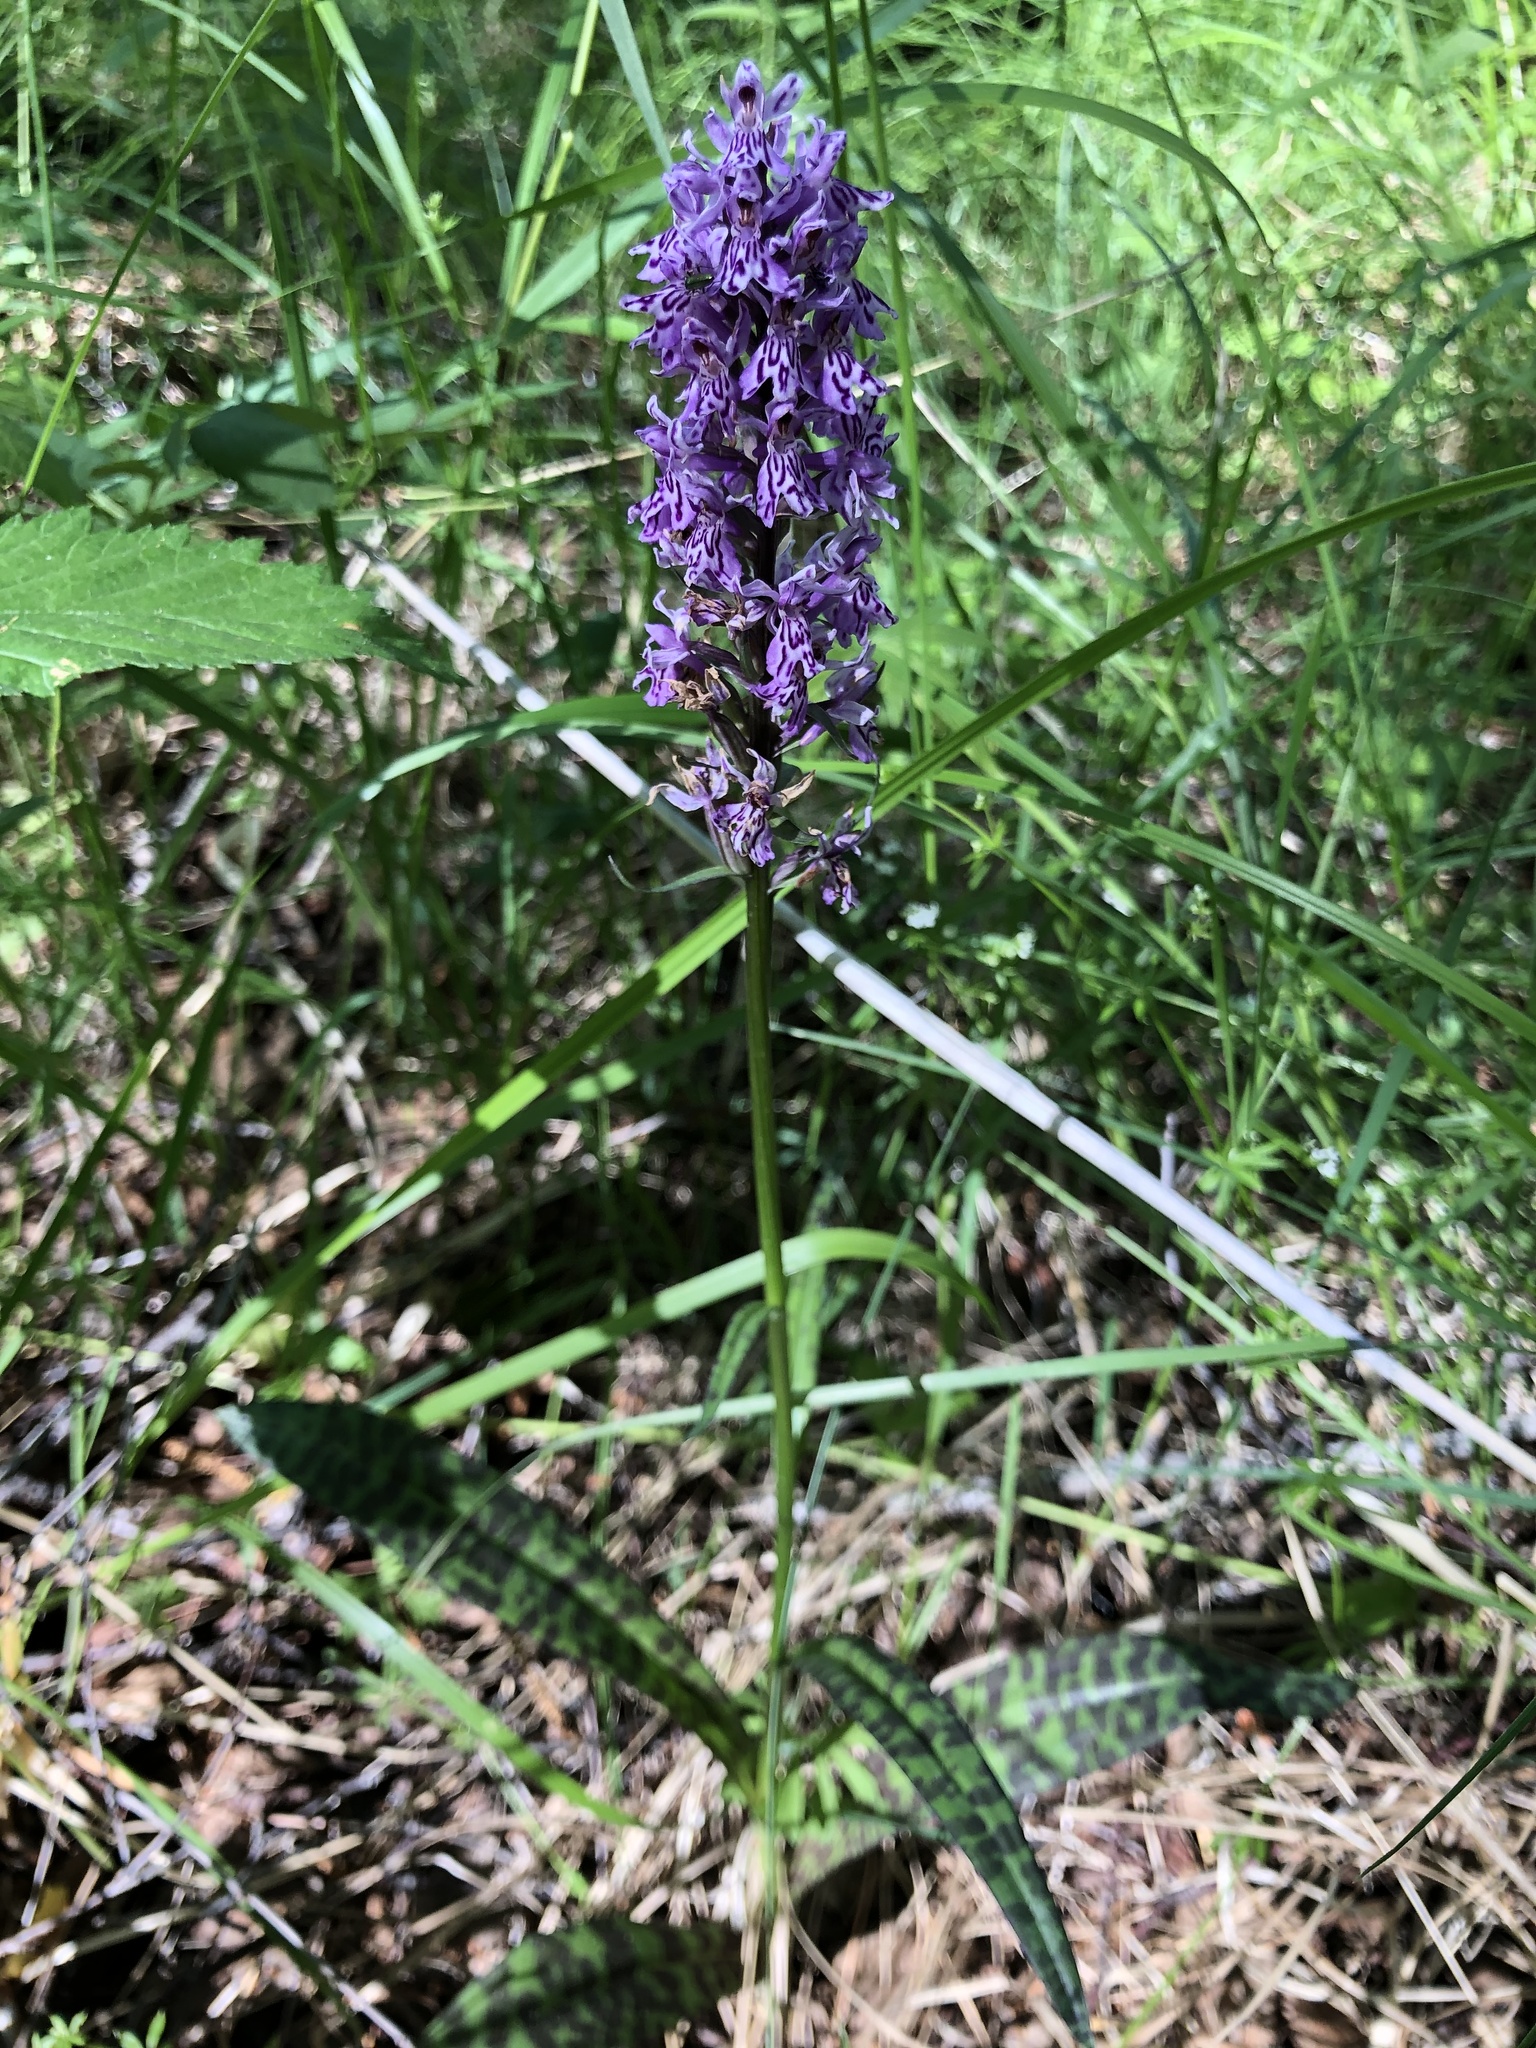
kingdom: Plantae
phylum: Tracheophyta
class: Liliopsida
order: Asparagales
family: Orchidaceae
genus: Dactylorhiza
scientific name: Dactylorhiza maculata
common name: Heath spotted-orchid
